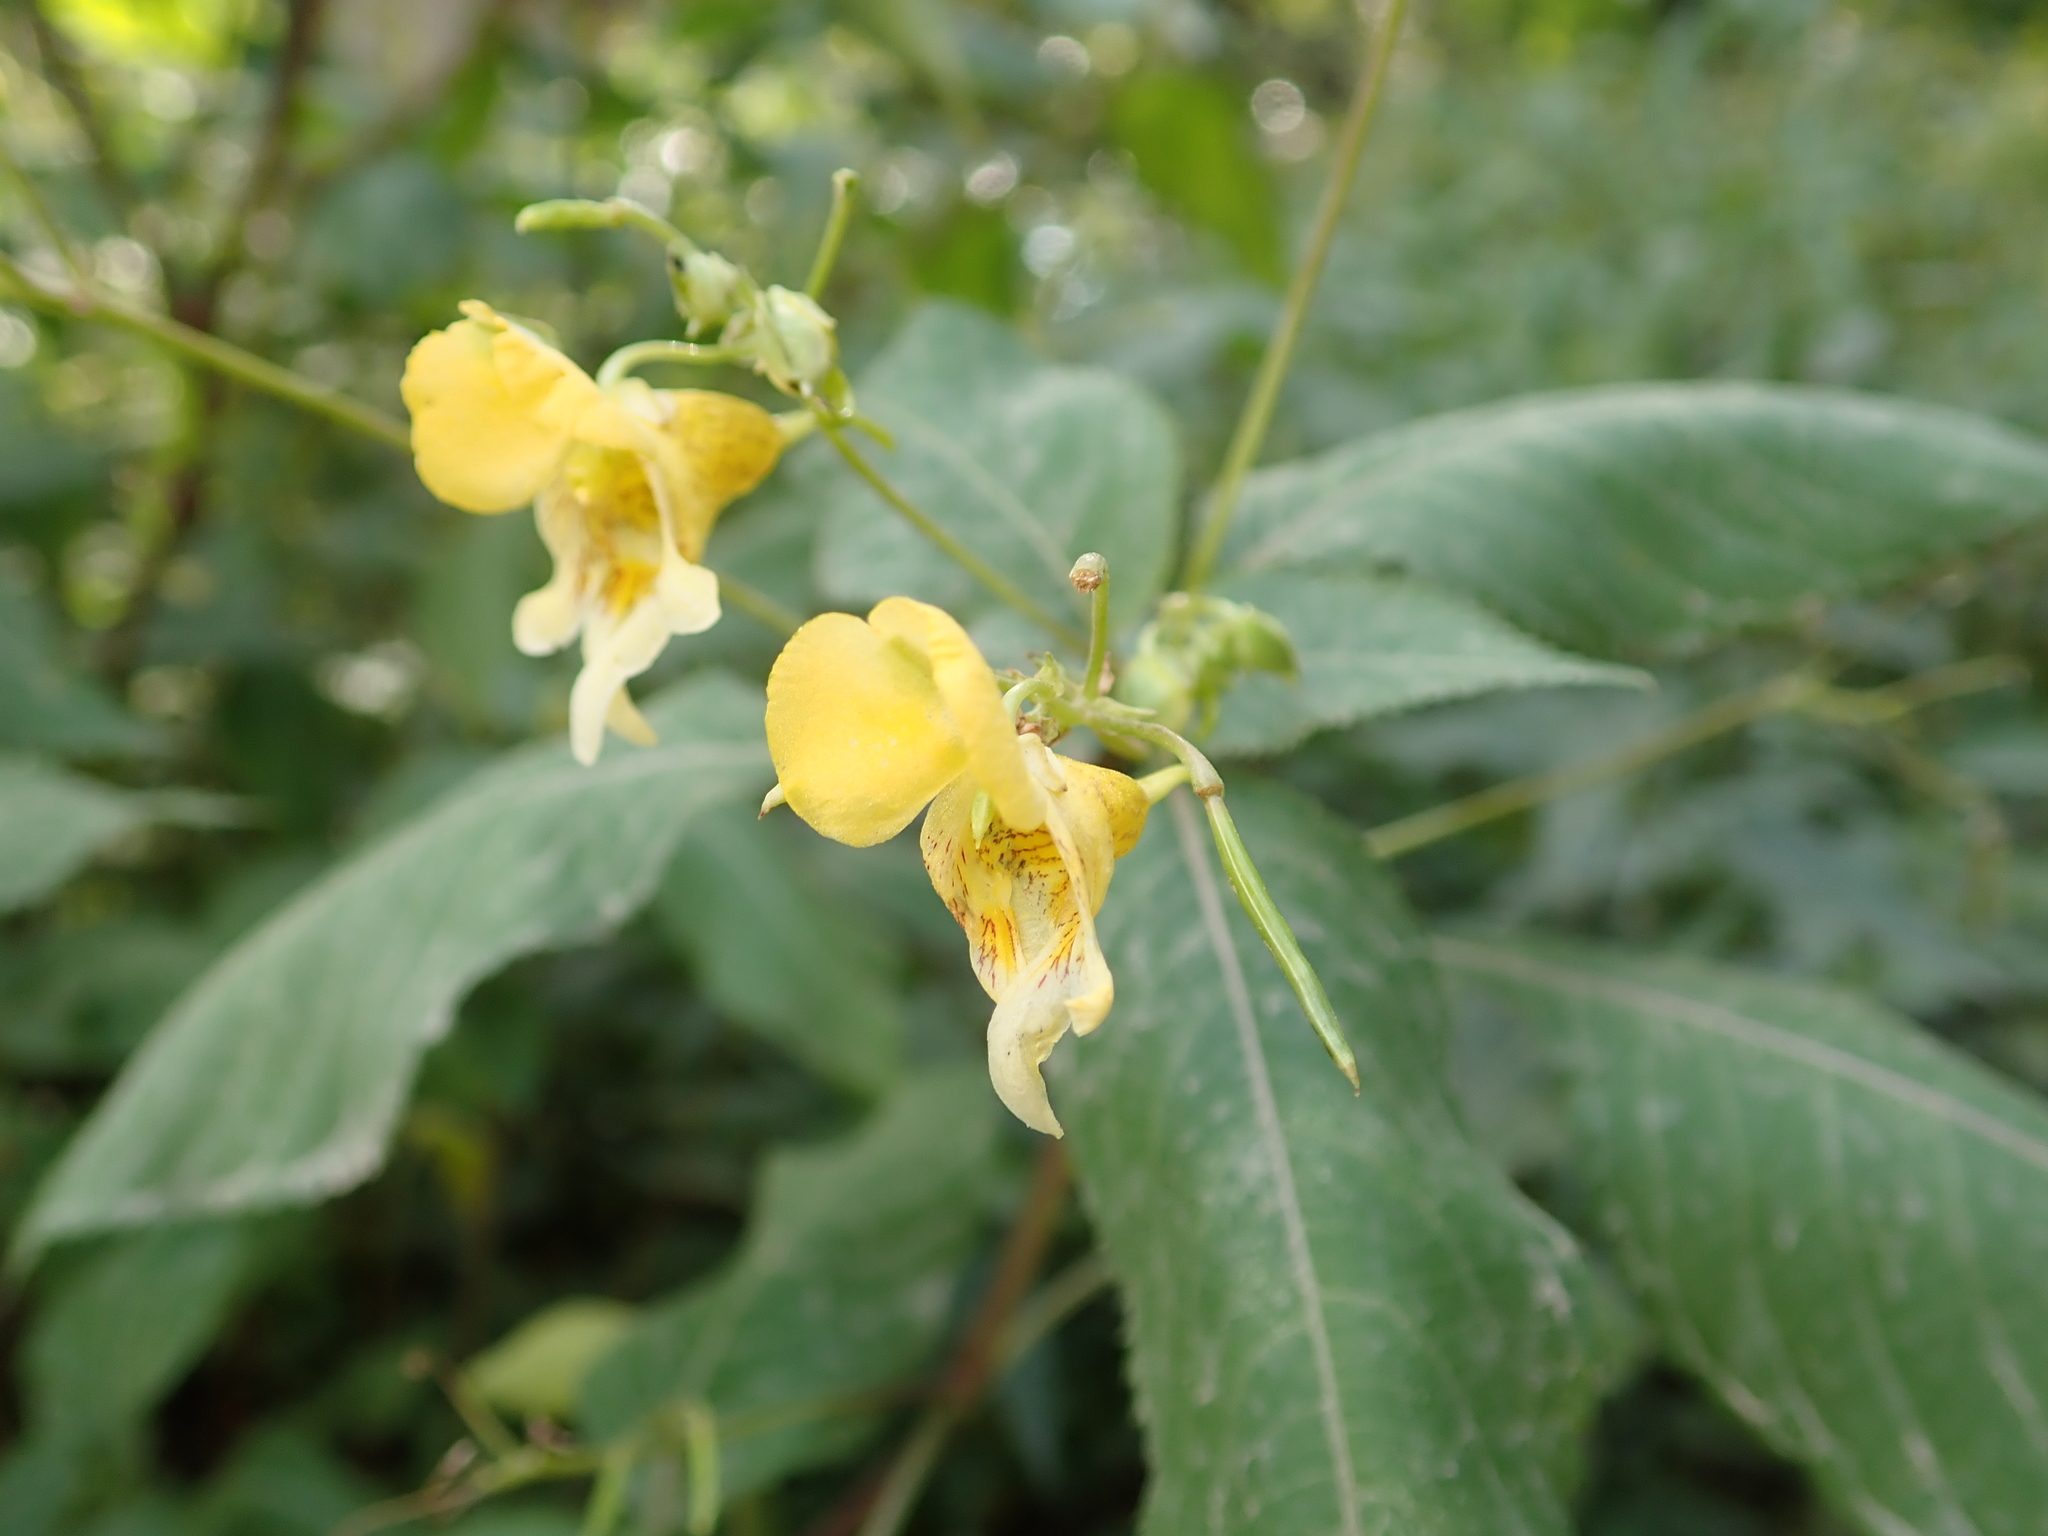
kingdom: Plantae
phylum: Tracheophyta
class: Magnoliopsida
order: Ericales
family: Balsaminaceae
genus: Impatiens
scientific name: Impatiens edgeworthii
